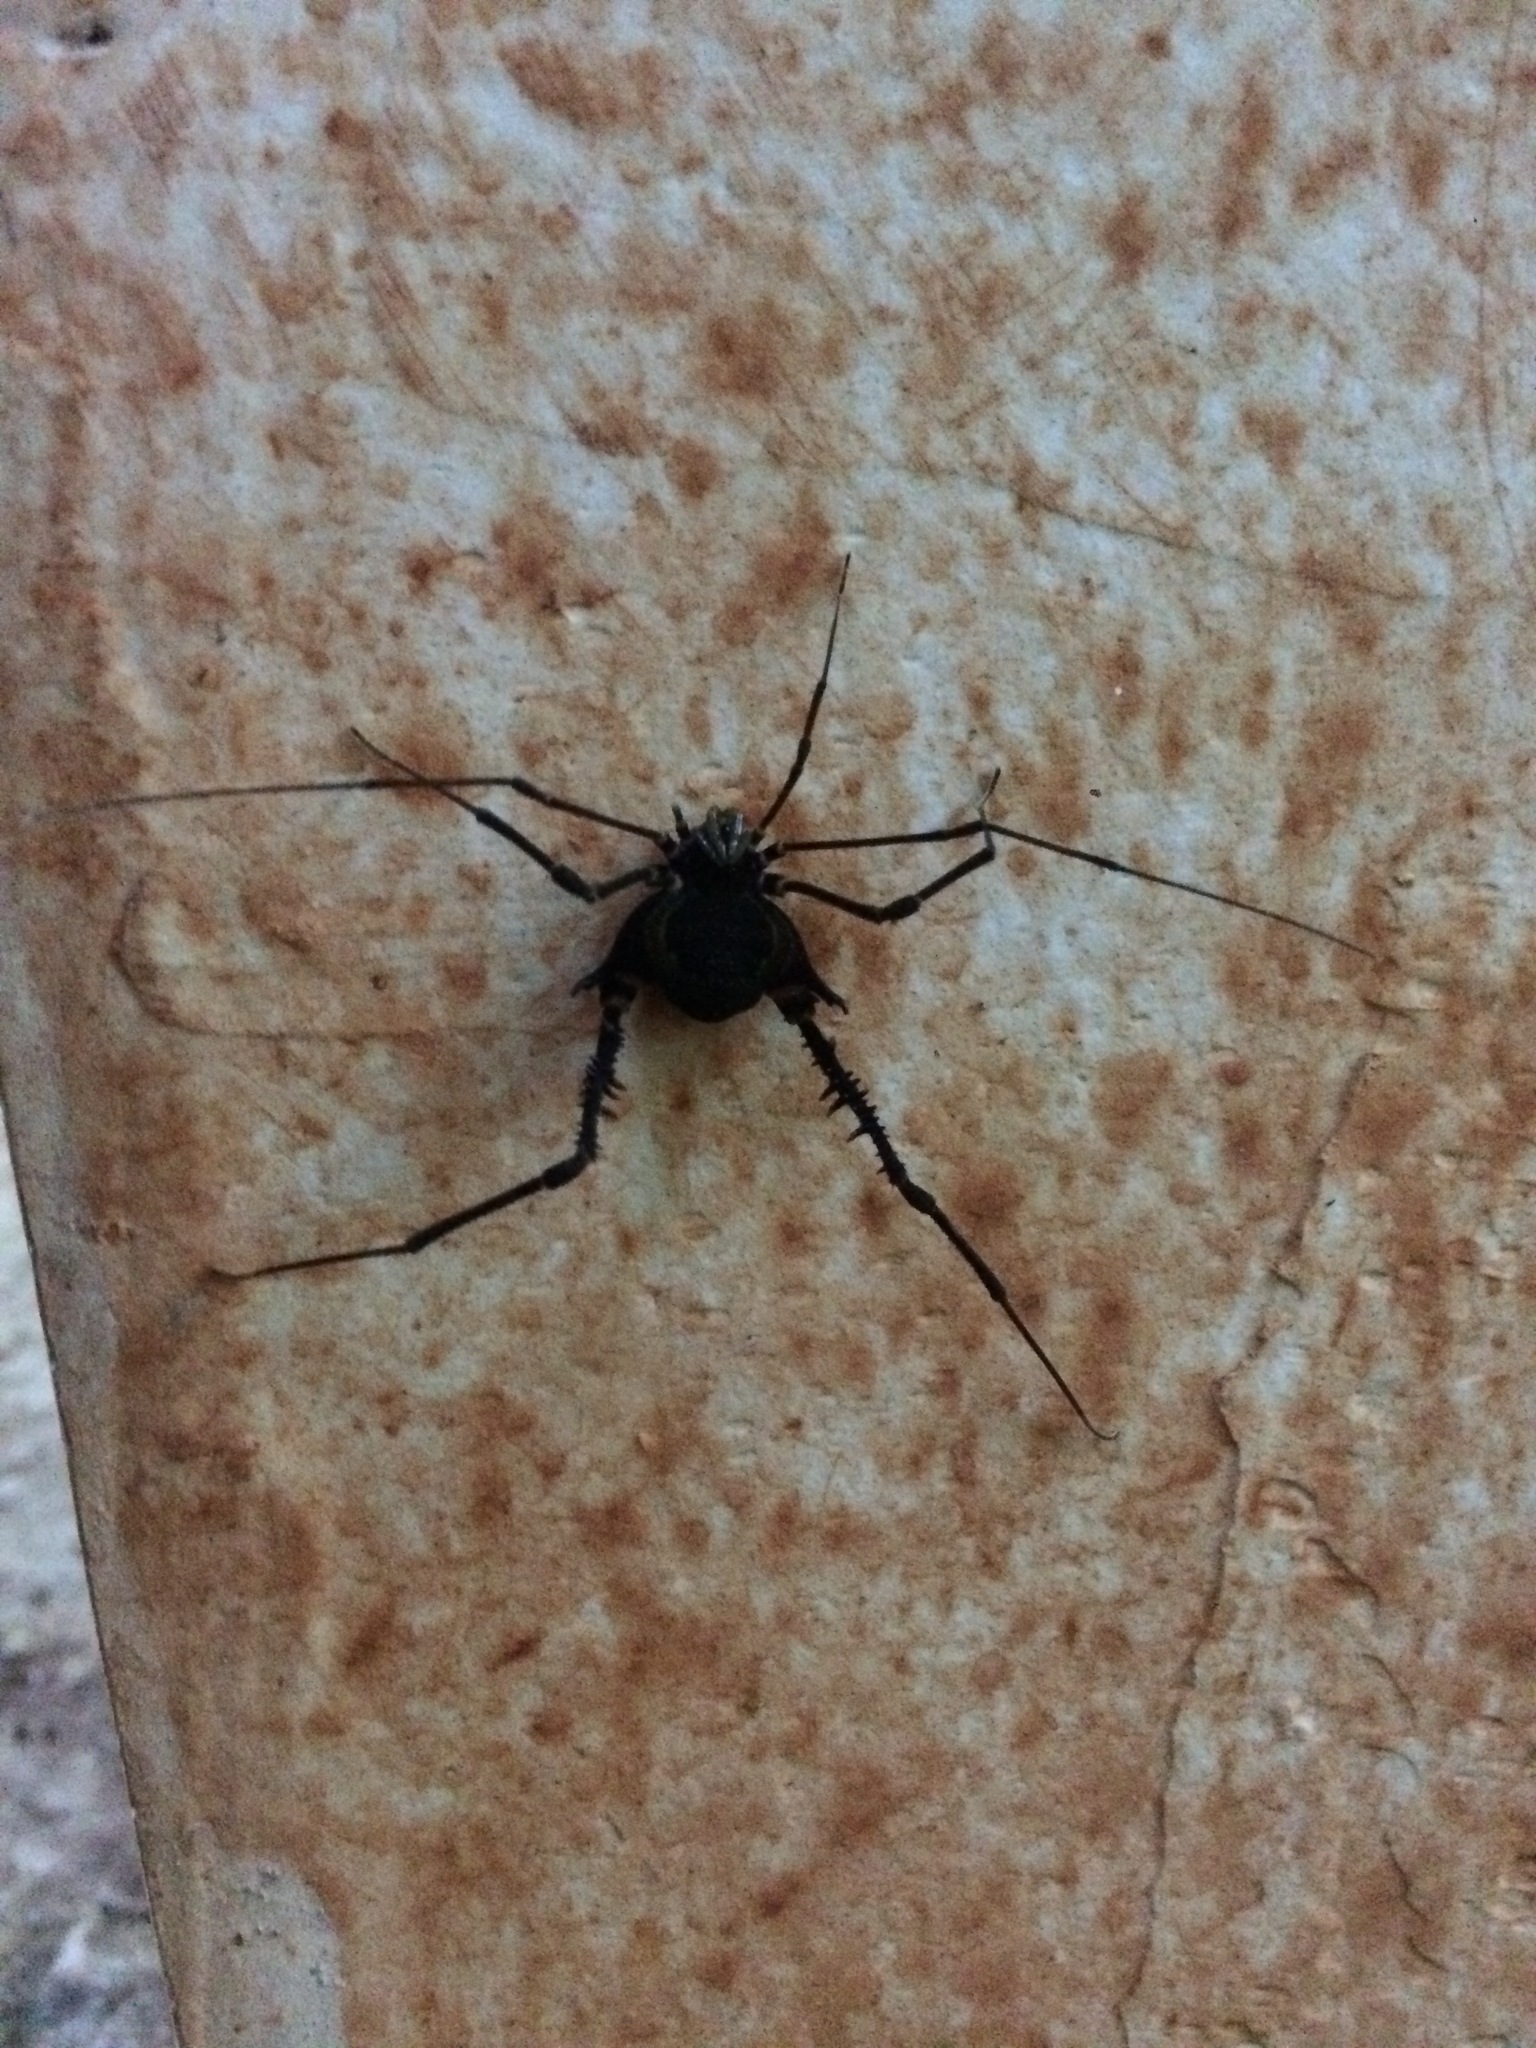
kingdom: Animalia
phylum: Arthropoda
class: Arachnida
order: Opiliones
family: Gonyleptidae
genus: Geraeocormobius
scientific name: Geraeocormobius sylvarum
